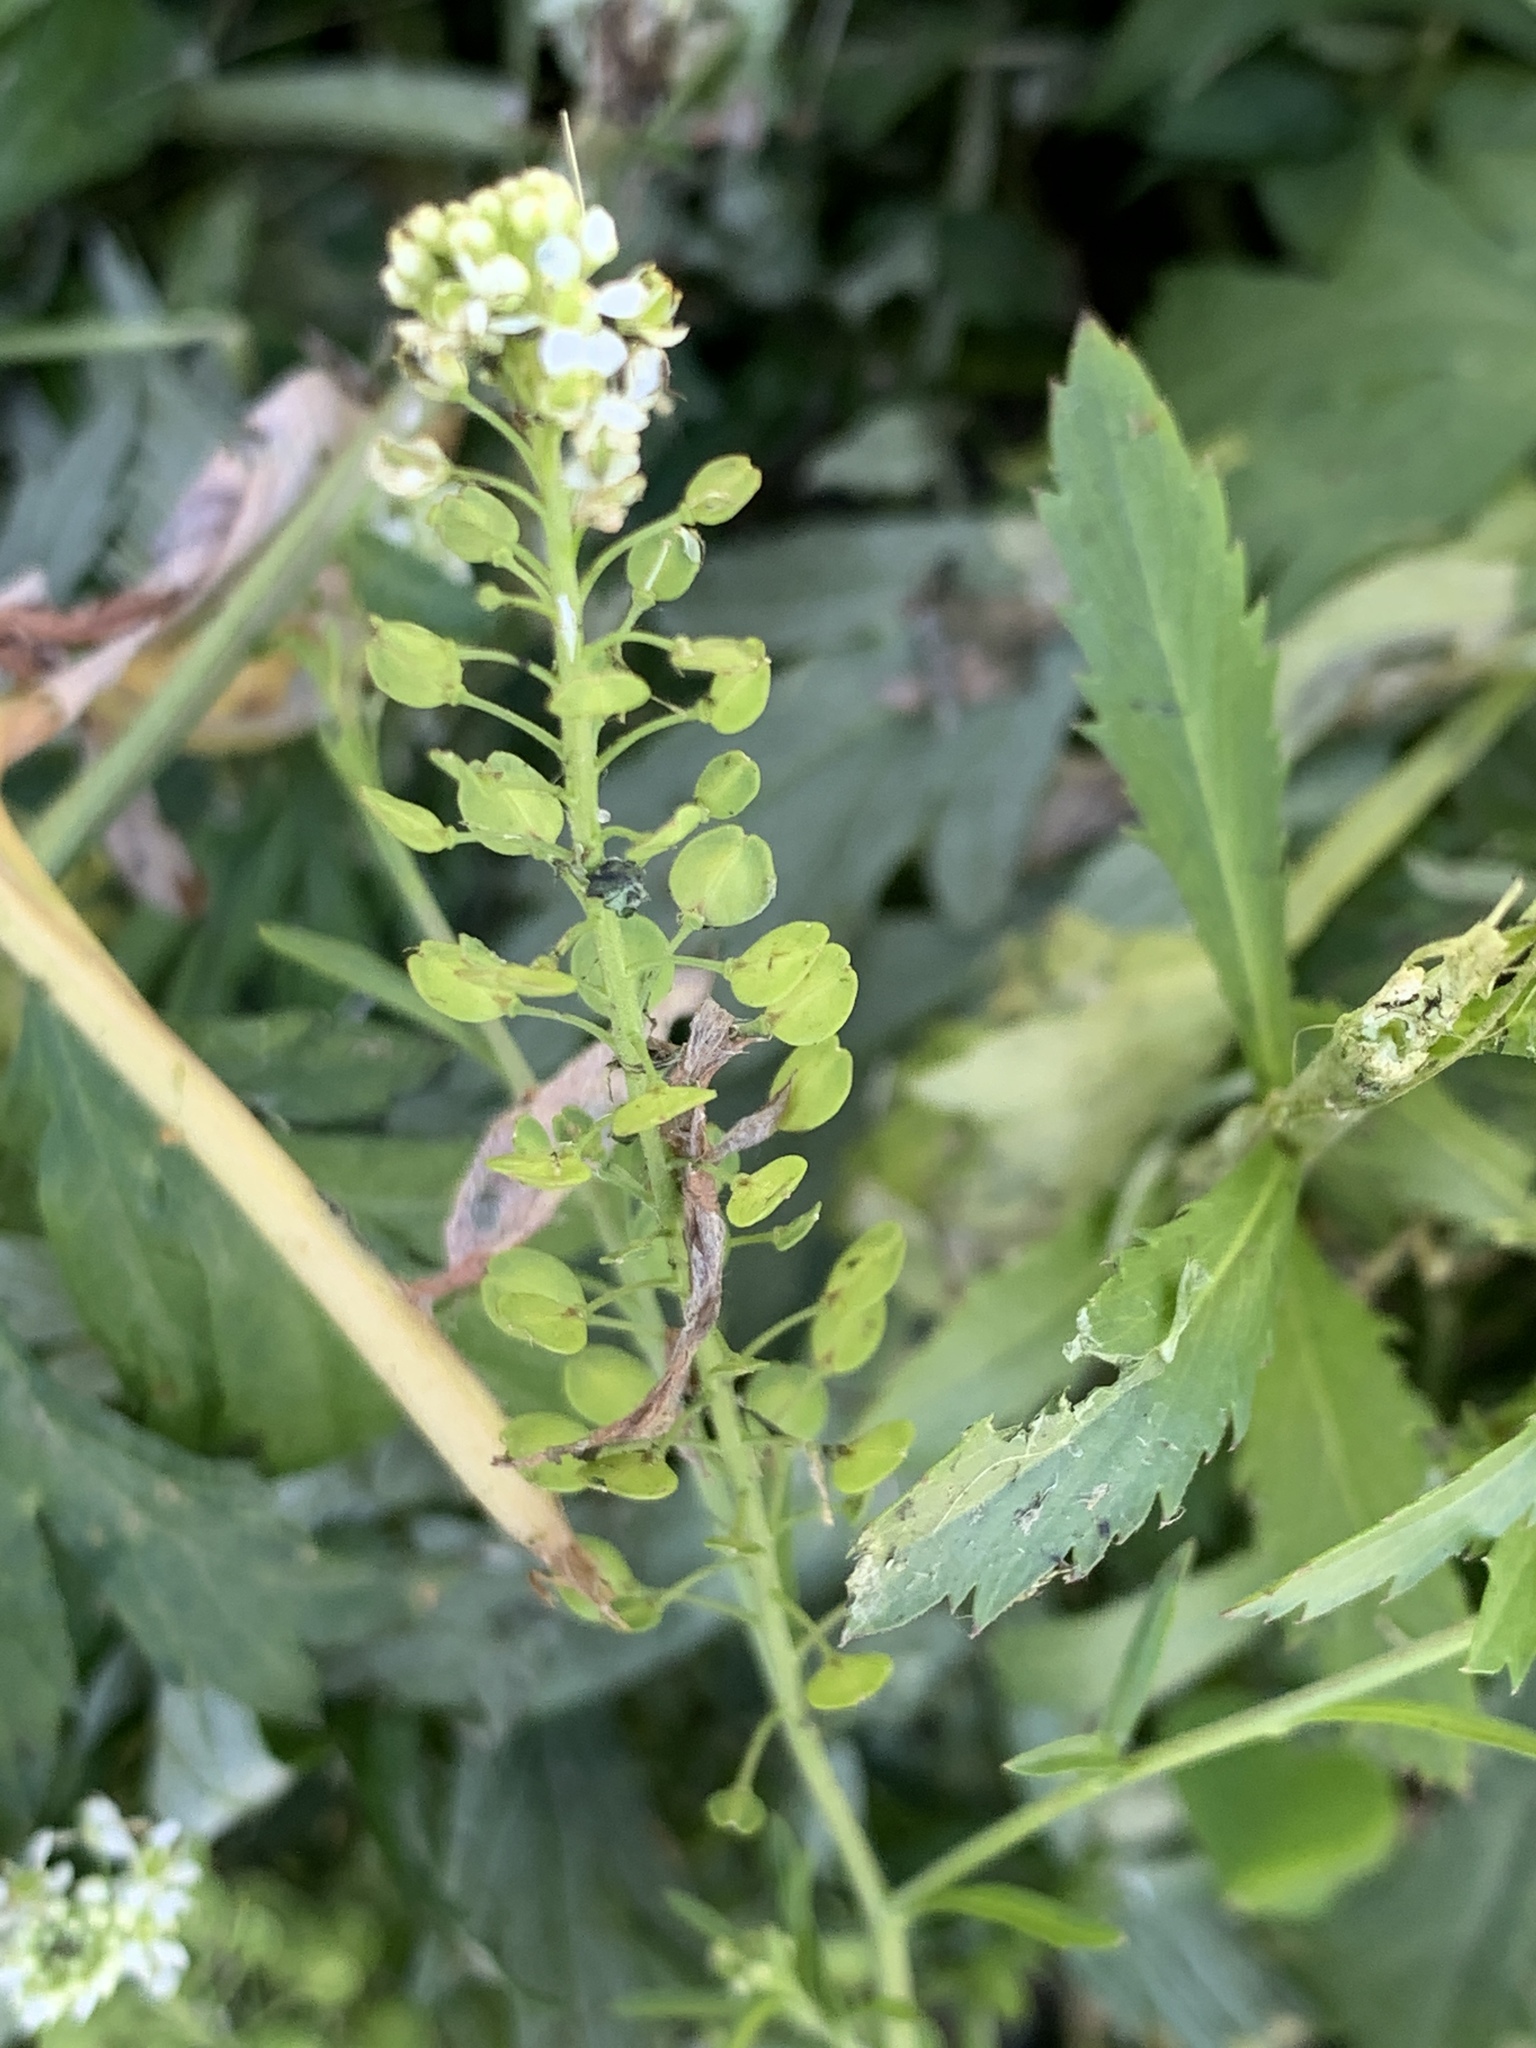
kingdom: Plantae
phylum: Tracheophyta
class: Magnoliopsida
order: Brassicales
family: Brassicaceae
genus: Lepidium
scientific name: Lepidium virginicum
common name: Least pepperwort
